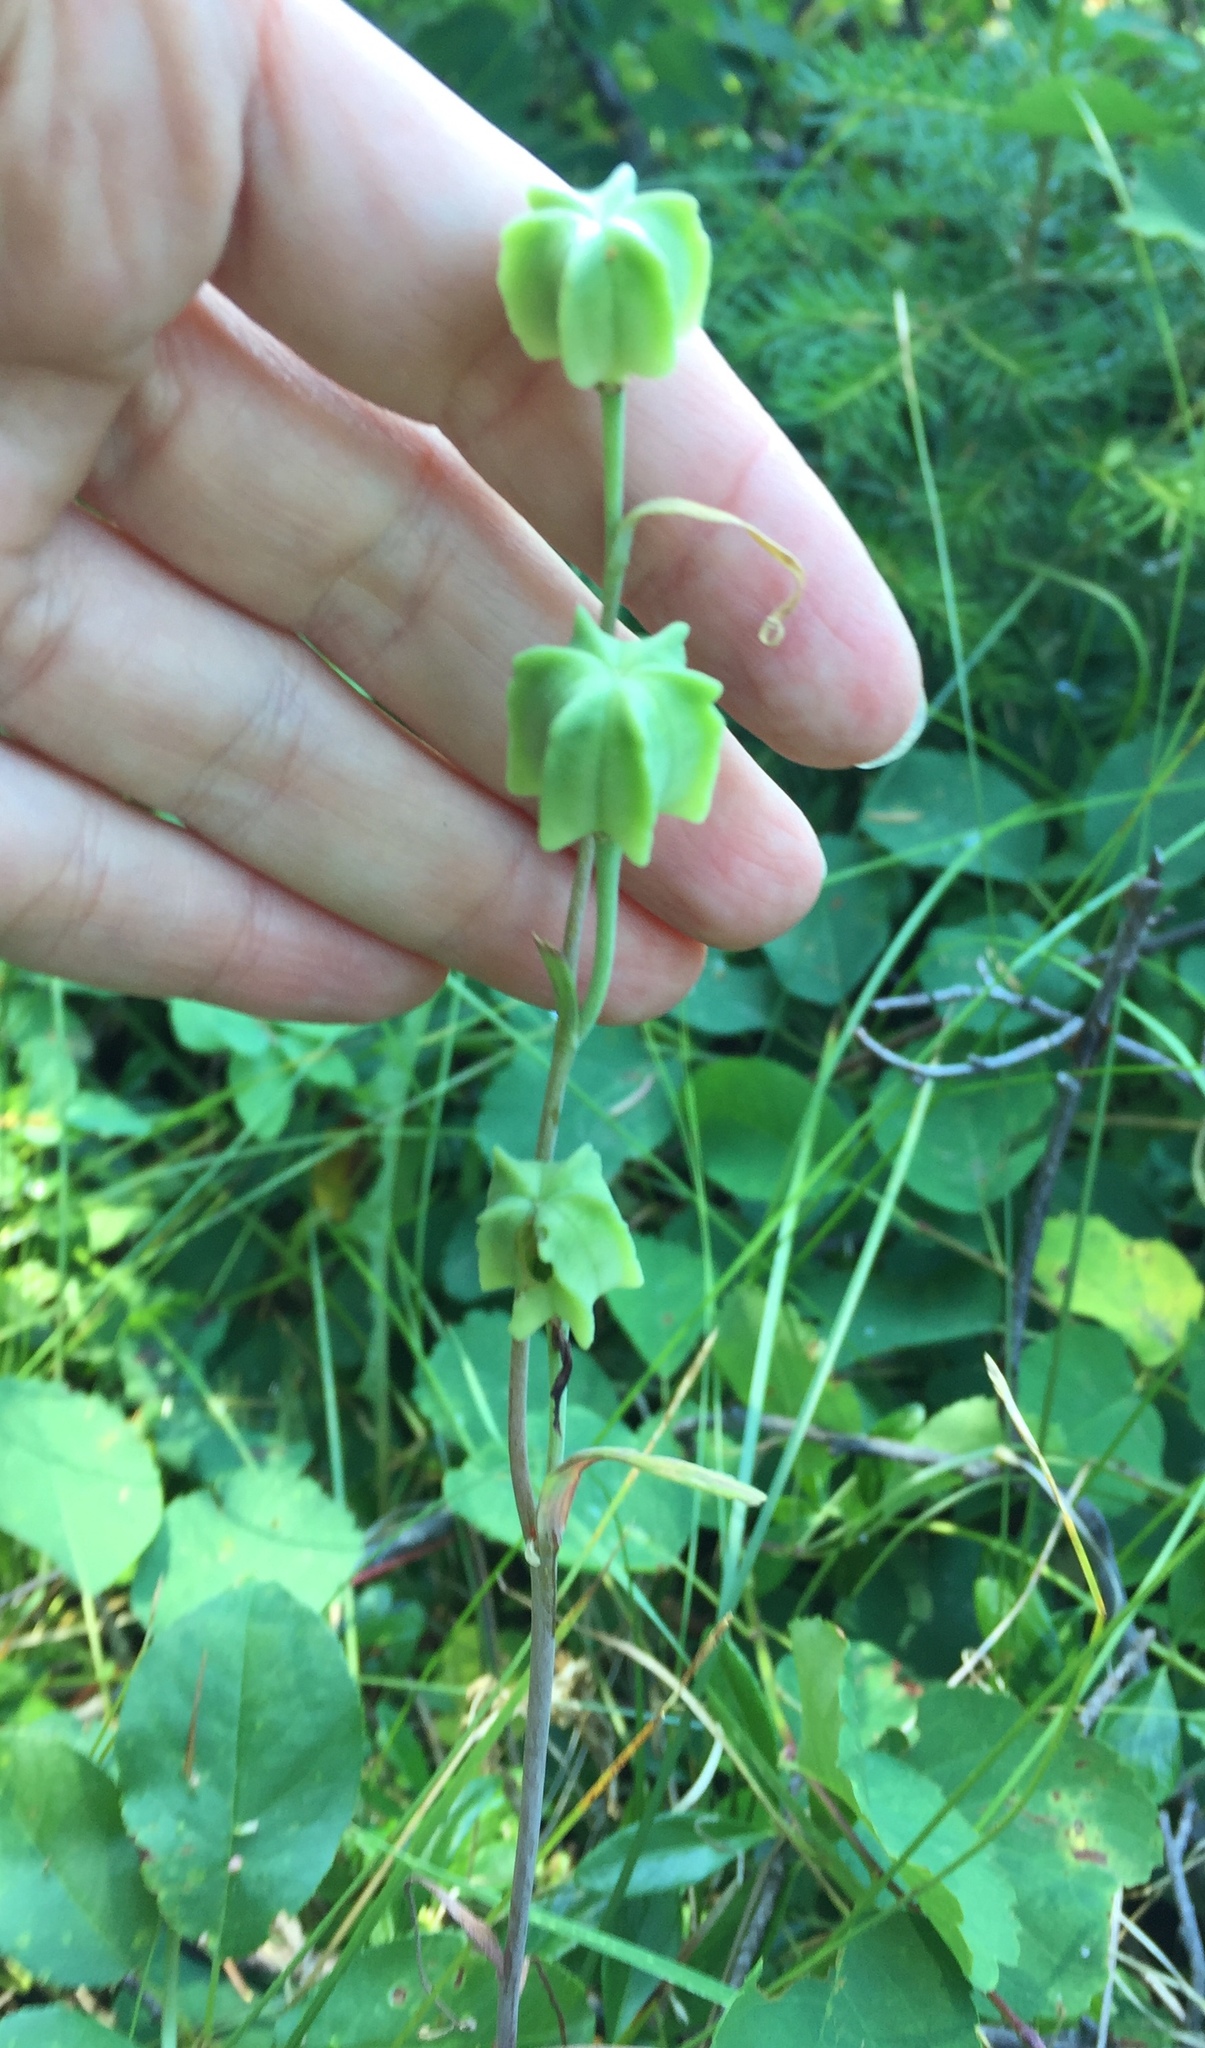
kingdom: Plantae
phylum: Tracheophyta
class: Liliopsida
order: Liliales
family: Liliaceae
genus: Fritillaria
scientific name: Fritillaria atropurpurea
